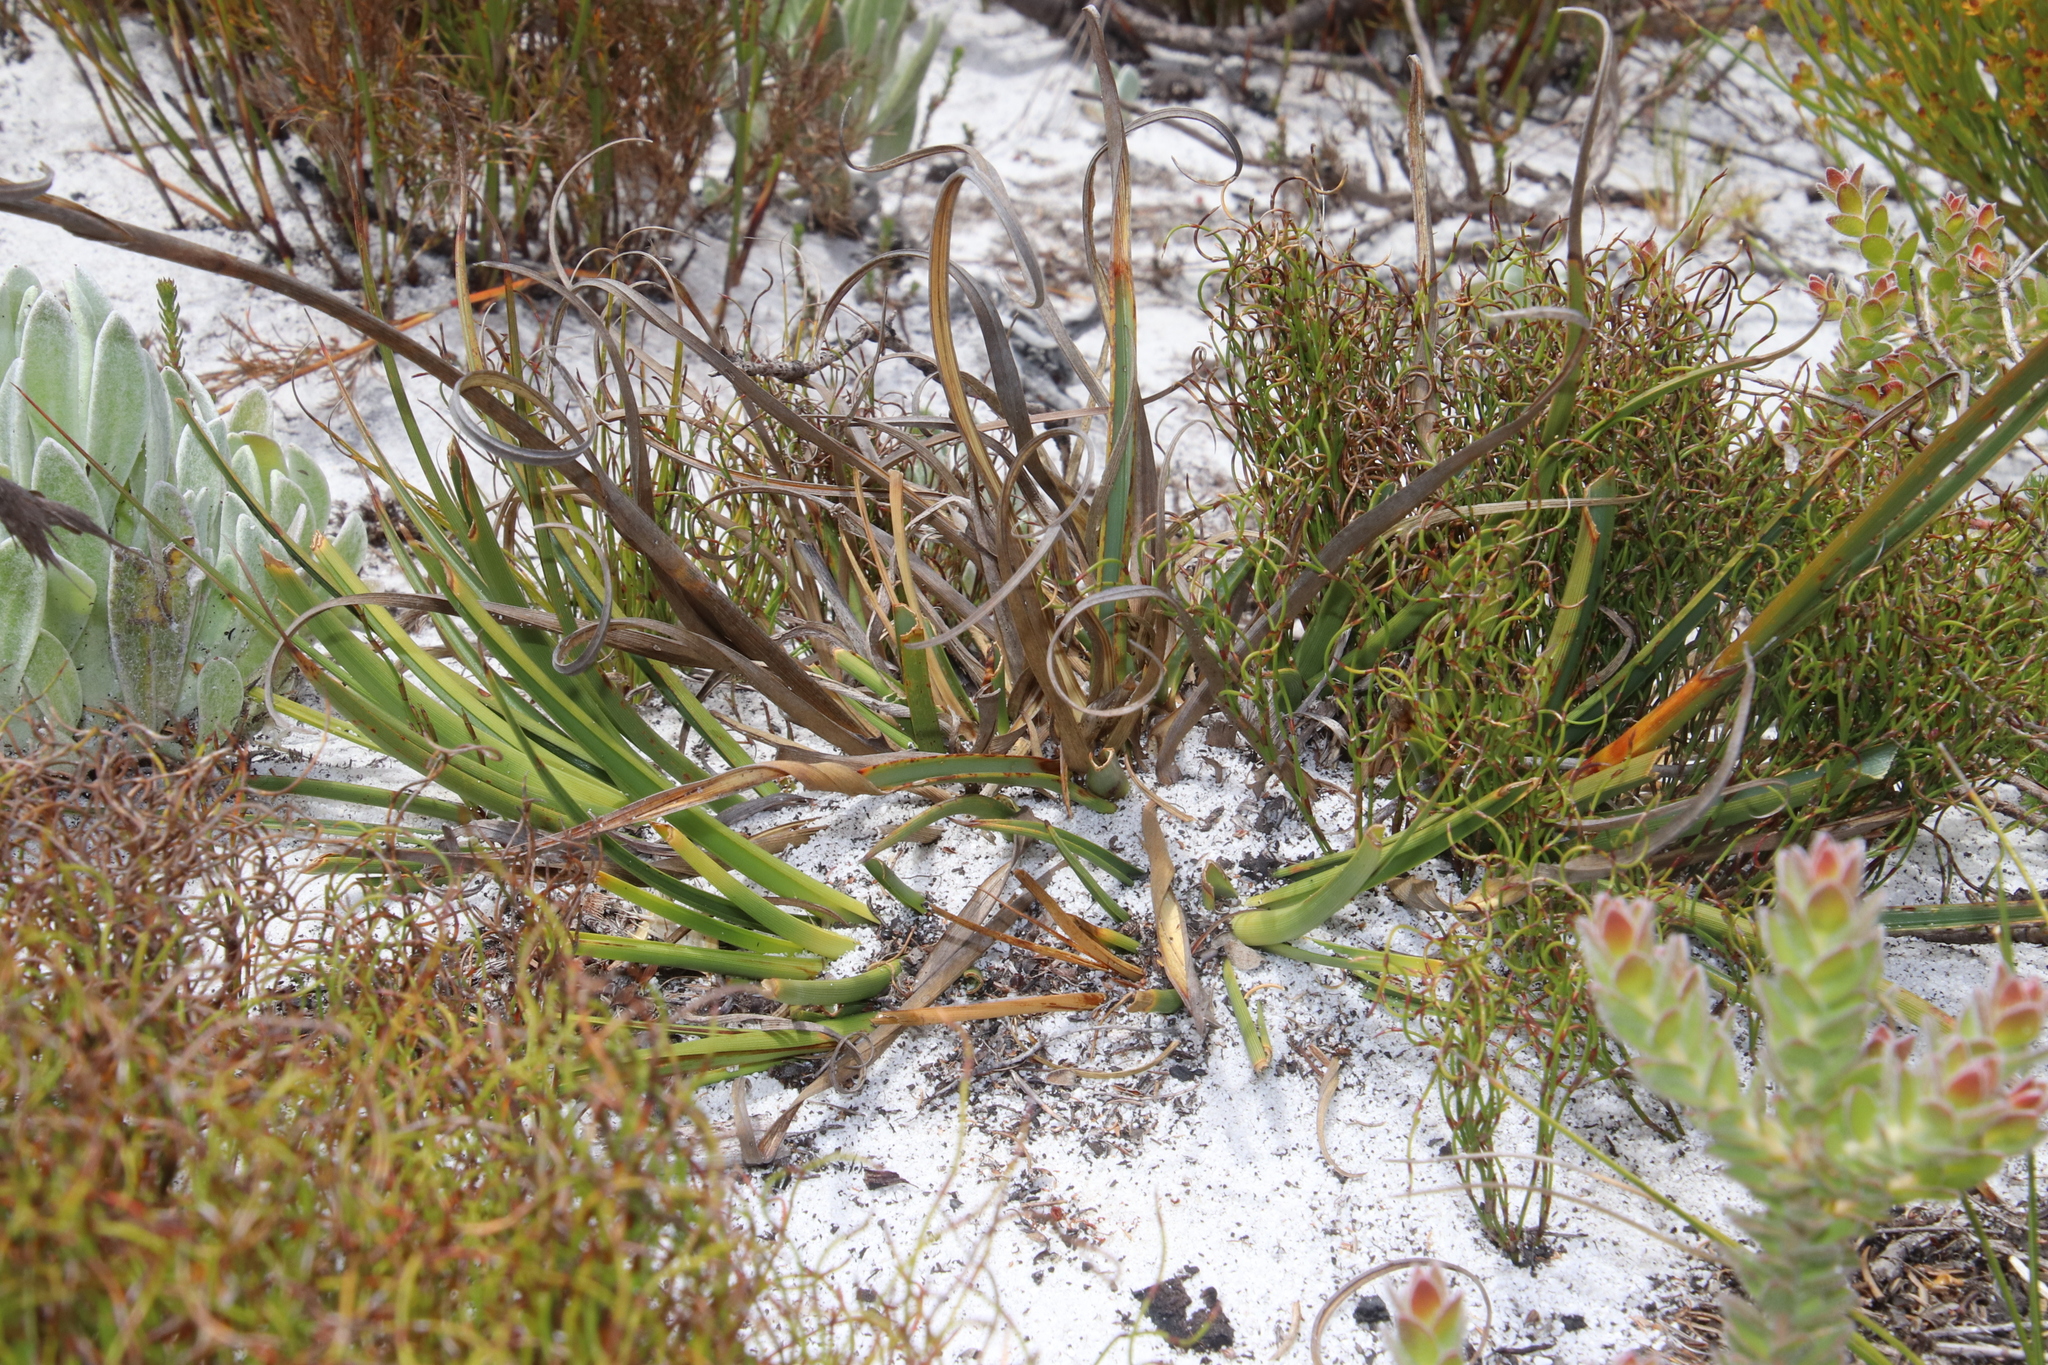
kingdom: Plantae
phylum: Tracheophyta
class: Liliopsida
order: Poales
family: Cyperaceae
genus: Tetraria
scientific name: Tetraria eximia
